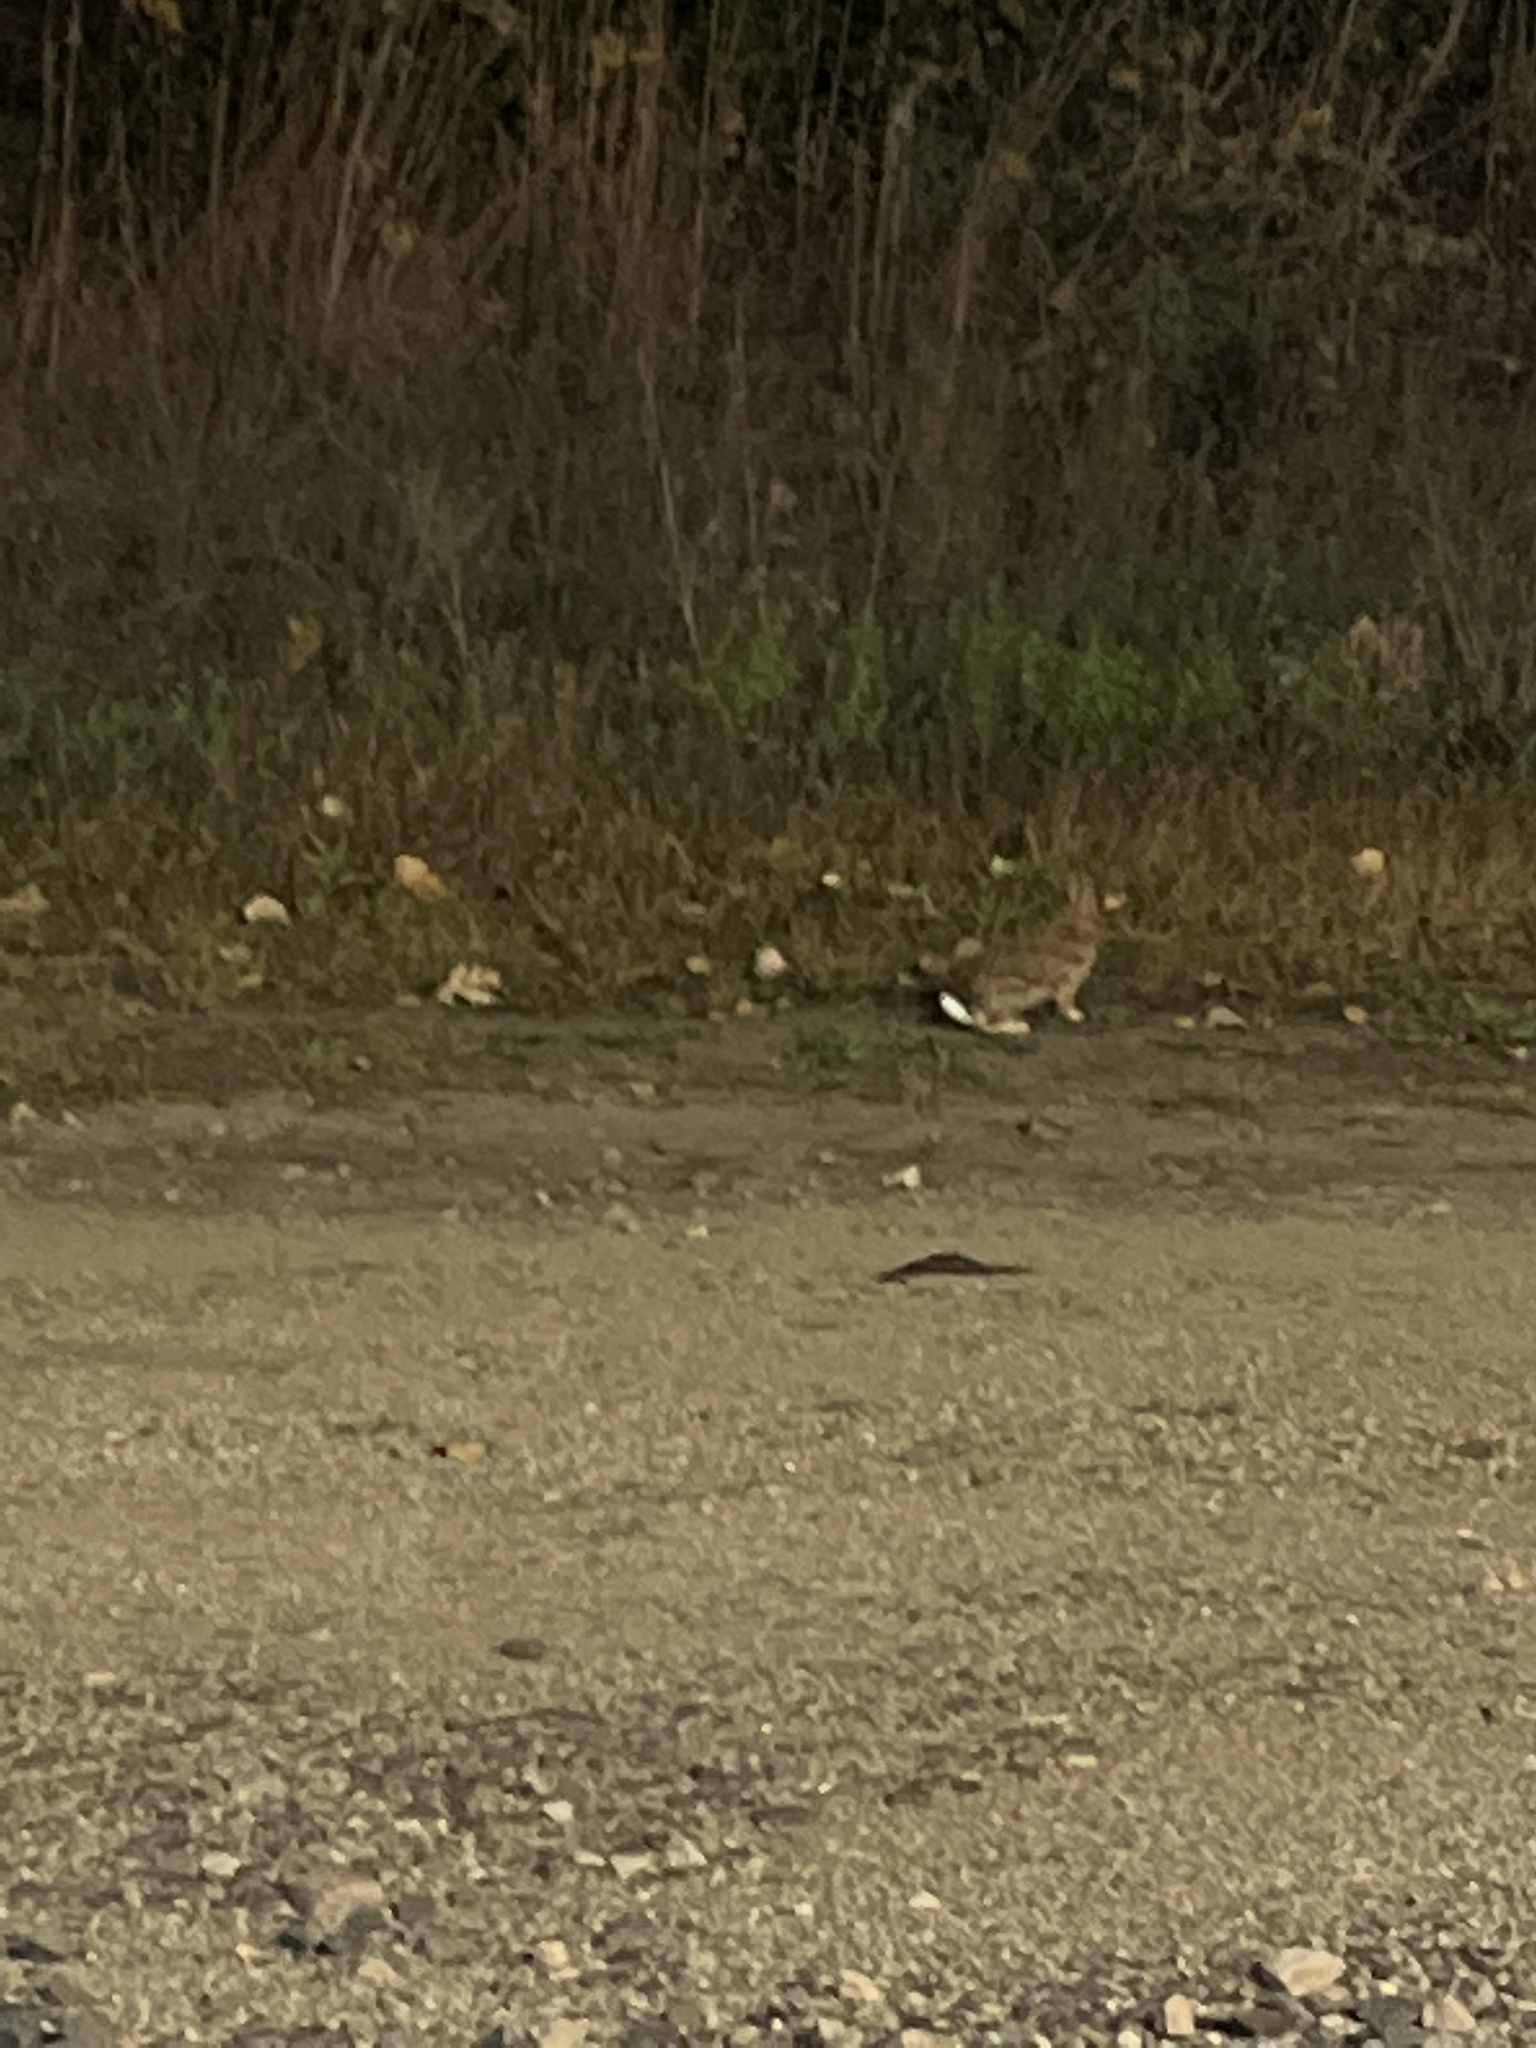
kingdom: Animalia
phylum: Chordata
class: Mammalia
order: Lagomorpha
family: Leporidae
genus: Sylvilagus
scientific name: Sylvilagus floridanus
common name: Eastern cottontail
